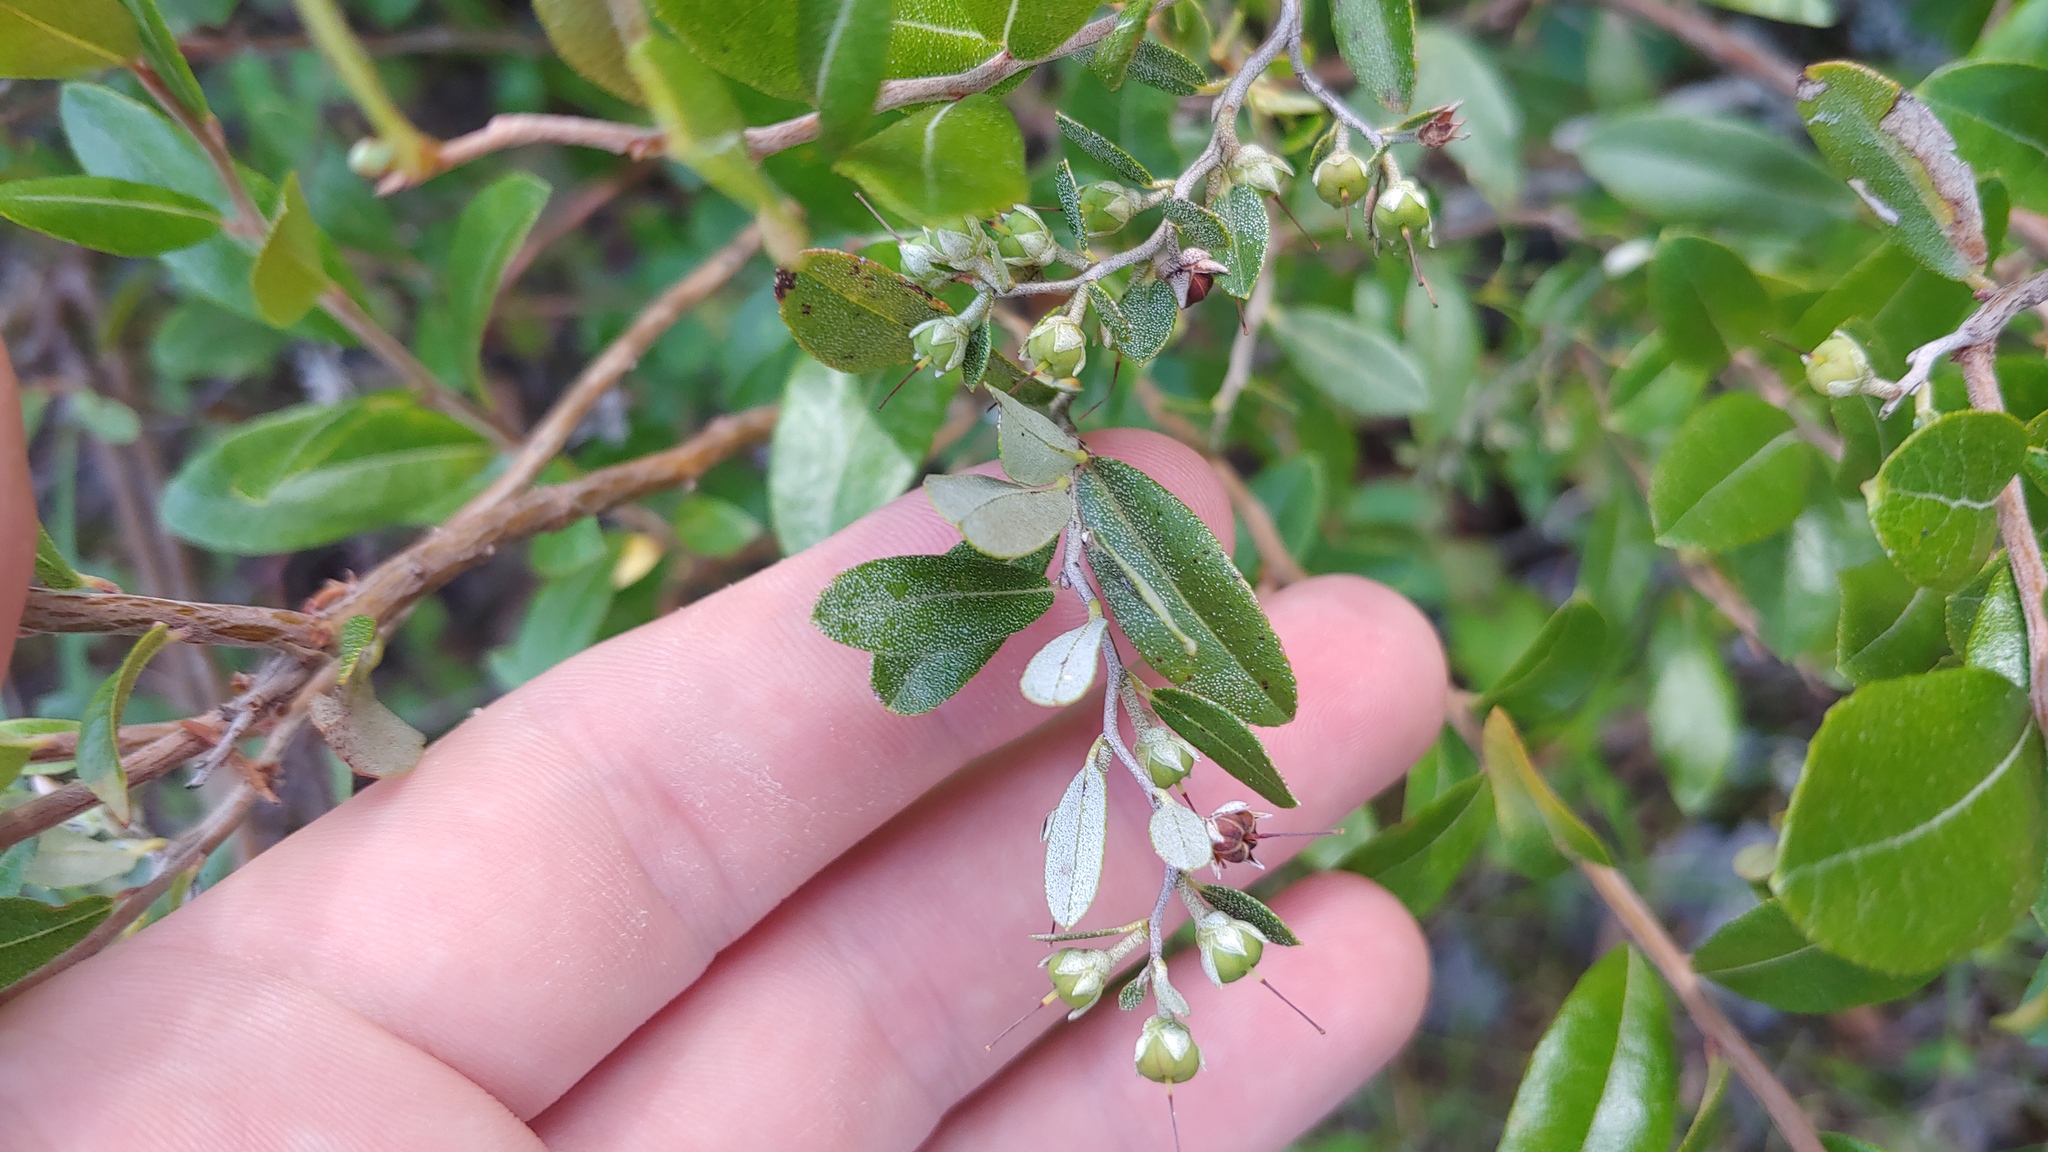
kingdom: Plantae
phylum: Tracheophyta
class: Magnoliopsida
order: Ericales
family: Ericaceae
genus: Chamaedaphne
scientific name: Chamaedaphne calyculata
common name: Leatherleaf
